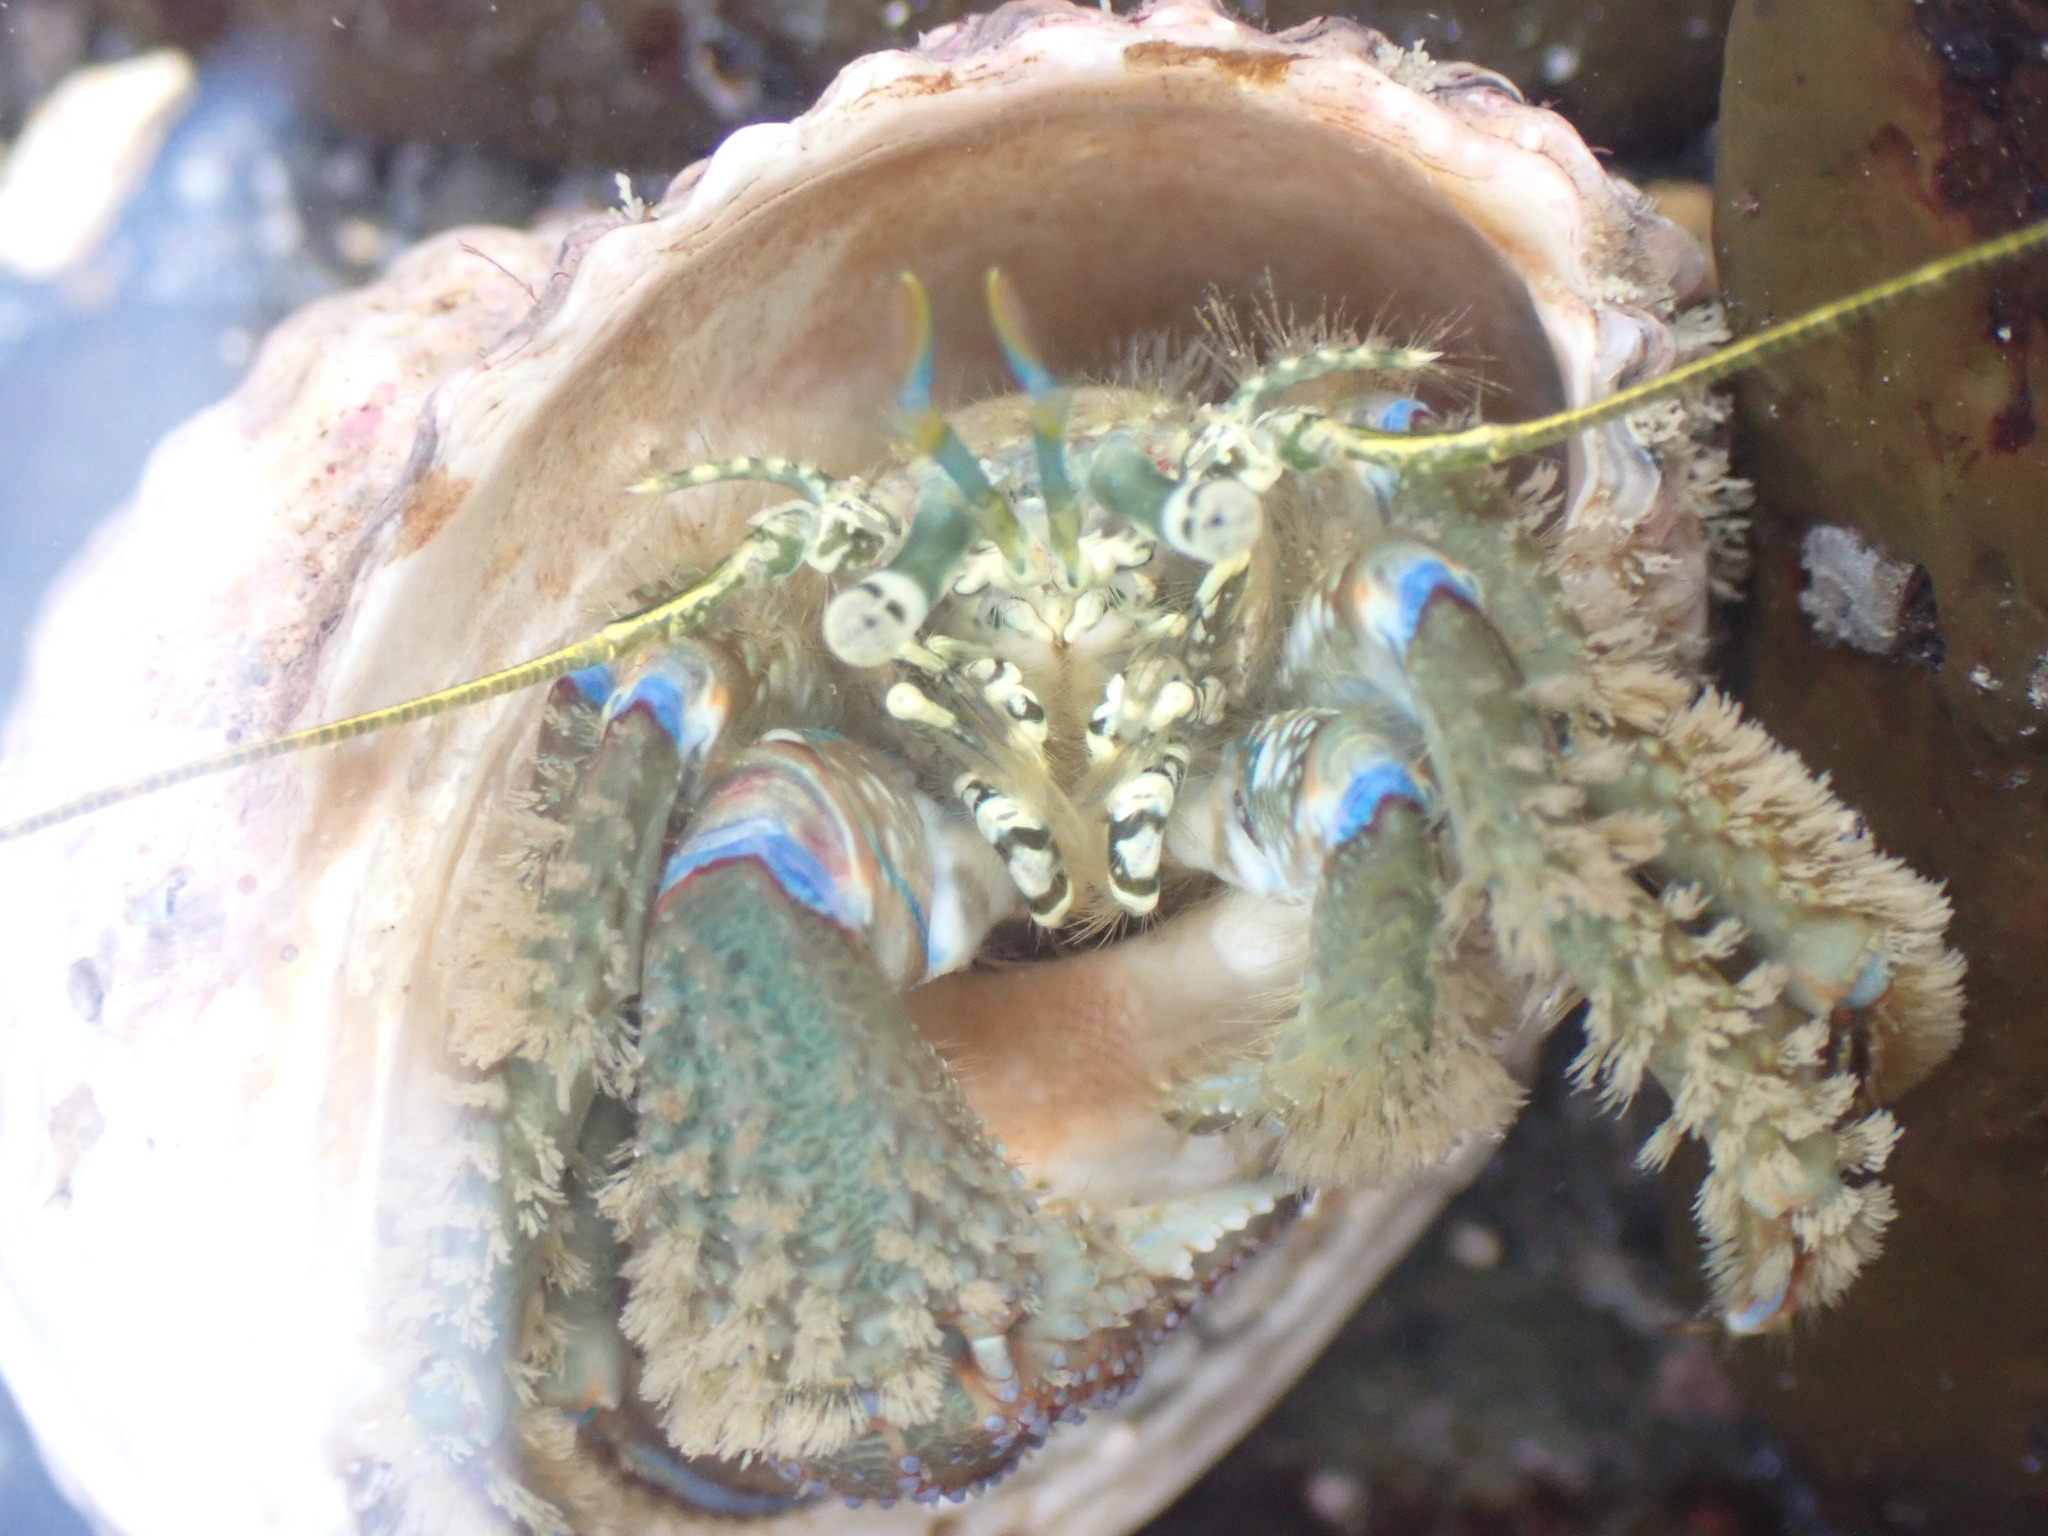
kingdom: Animalia
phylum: Arthropoda
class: Malacostraca
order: Decapoda
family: Paguridae
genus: Pagurus
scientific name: Pagurus novizealandiae
